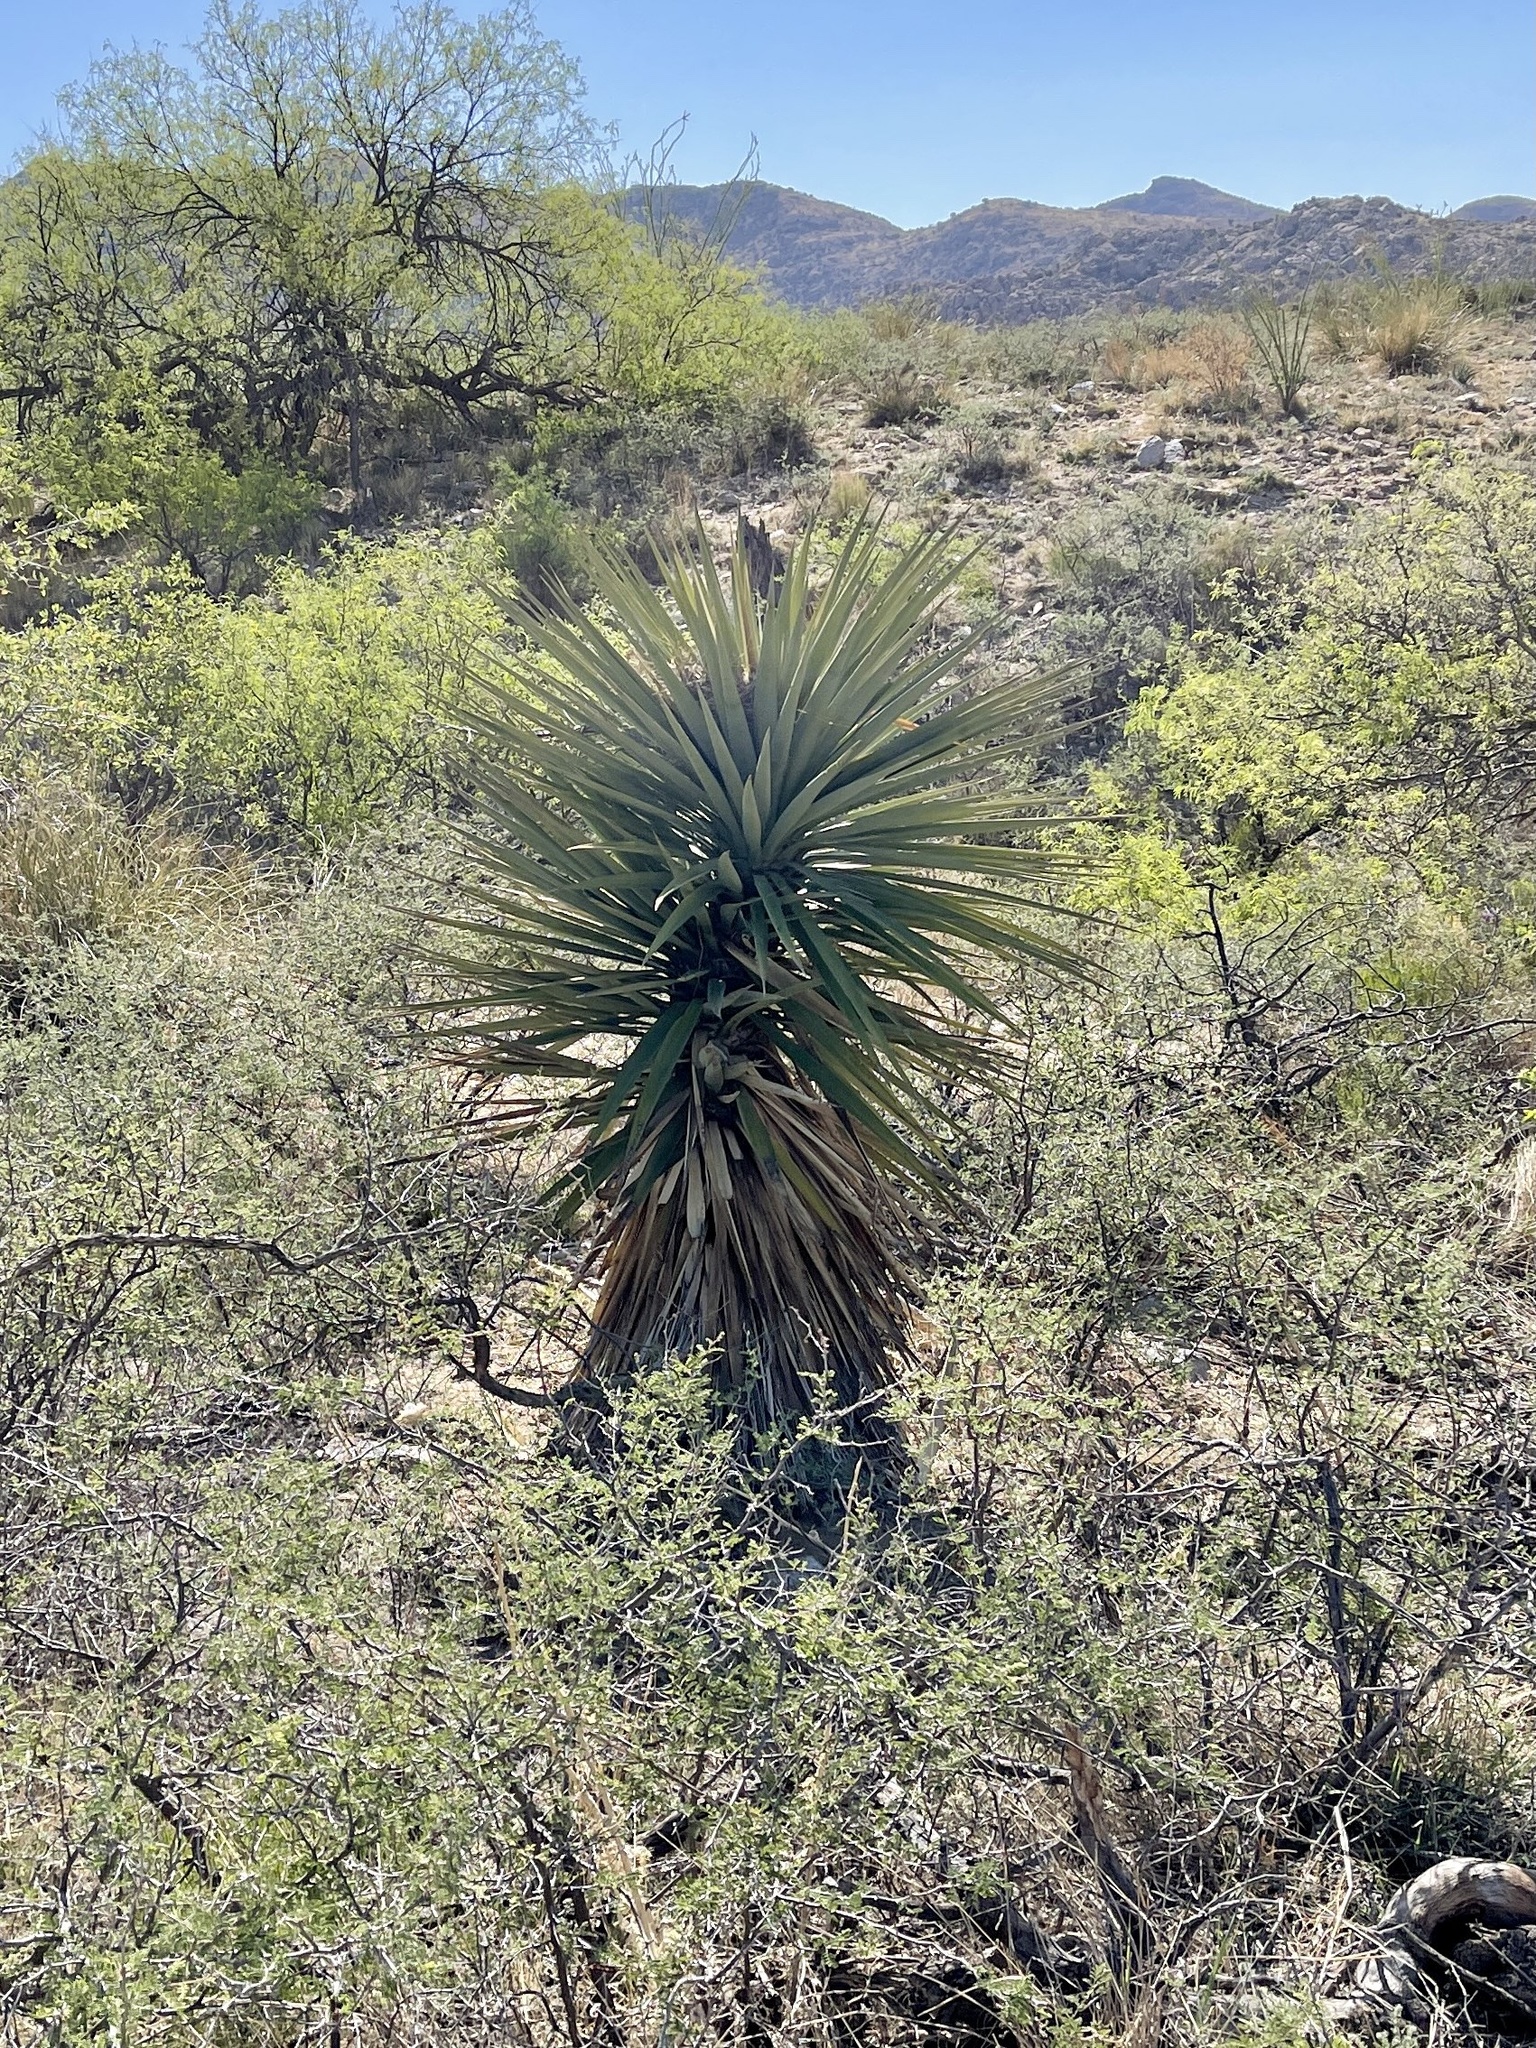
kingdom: Plantae
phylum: Tracheophyta
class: Liliopsida
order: Asparagales
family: Asparagaceae
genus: Yucca
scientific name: Yucca madrensis
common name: Hoary yucca
